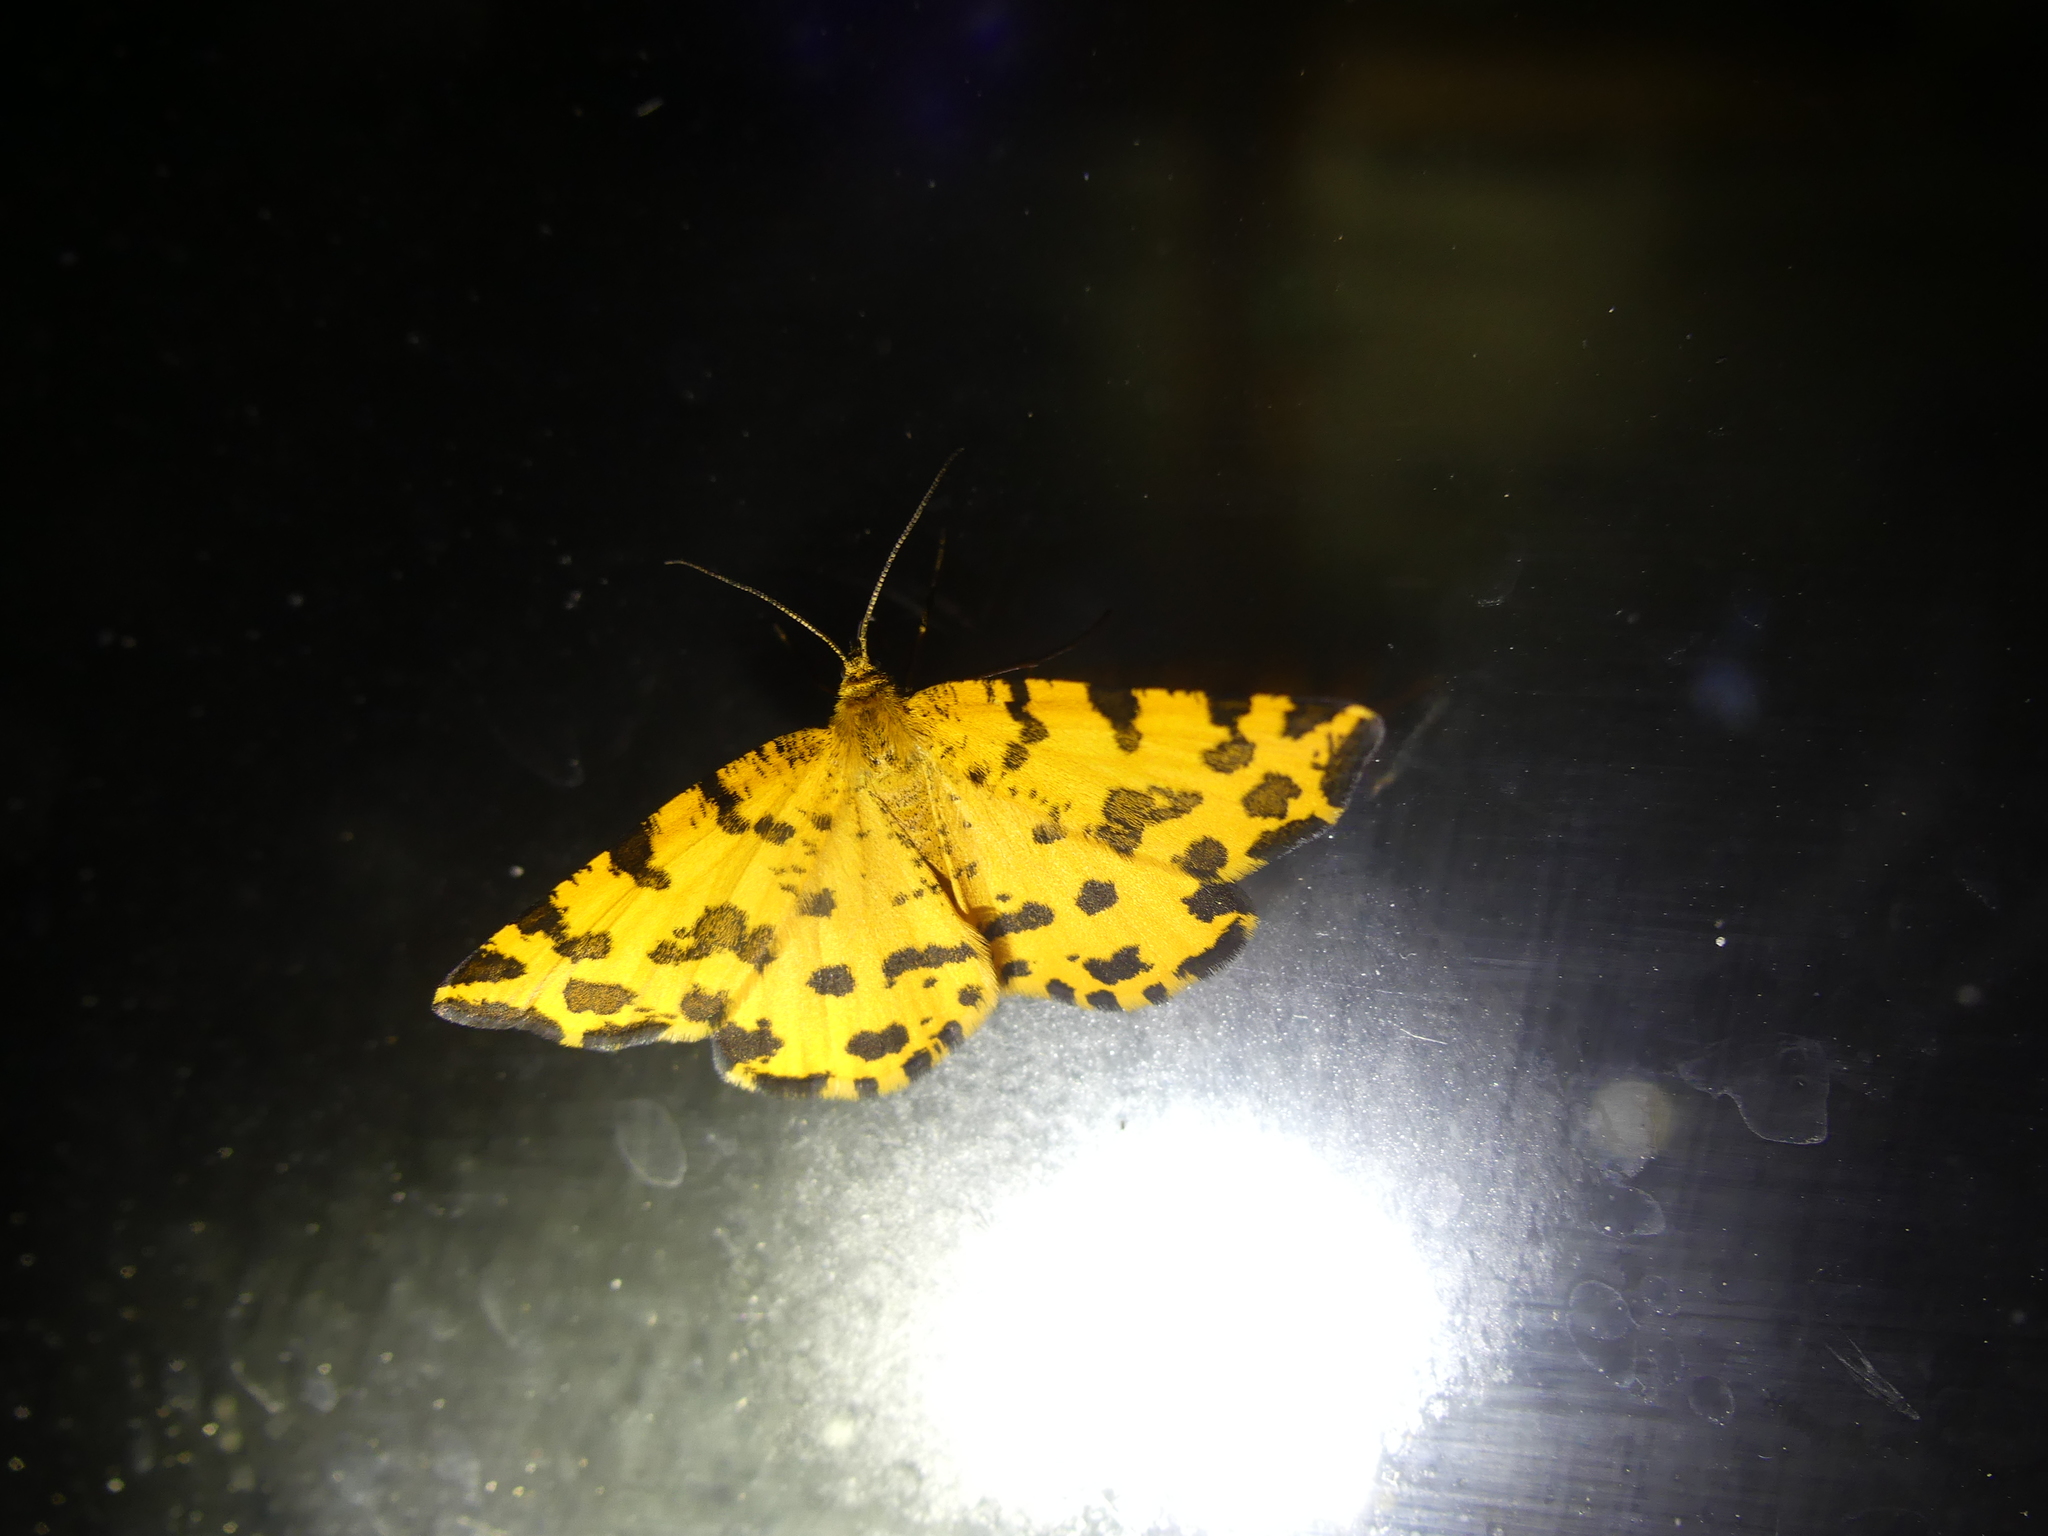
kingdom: Animalia
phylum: Arthropoda
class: Insecta
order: Lepidoptera
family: Geometridae
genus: Pseudopanthera
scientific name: Pseudopanthera macularia
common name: Speckled yellow
